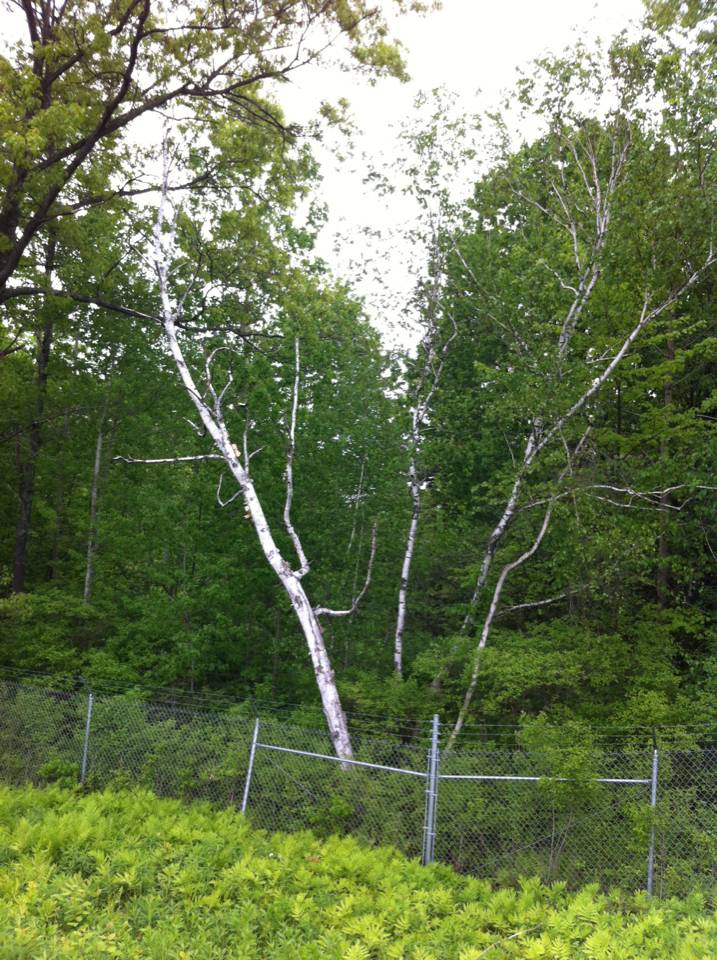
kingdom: Plantae
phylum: Tracheophyta
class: Magnoliopsida
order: Fagales
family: Betulaceae
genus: Betula
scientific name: Betula papyrifera
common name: Paper birch
